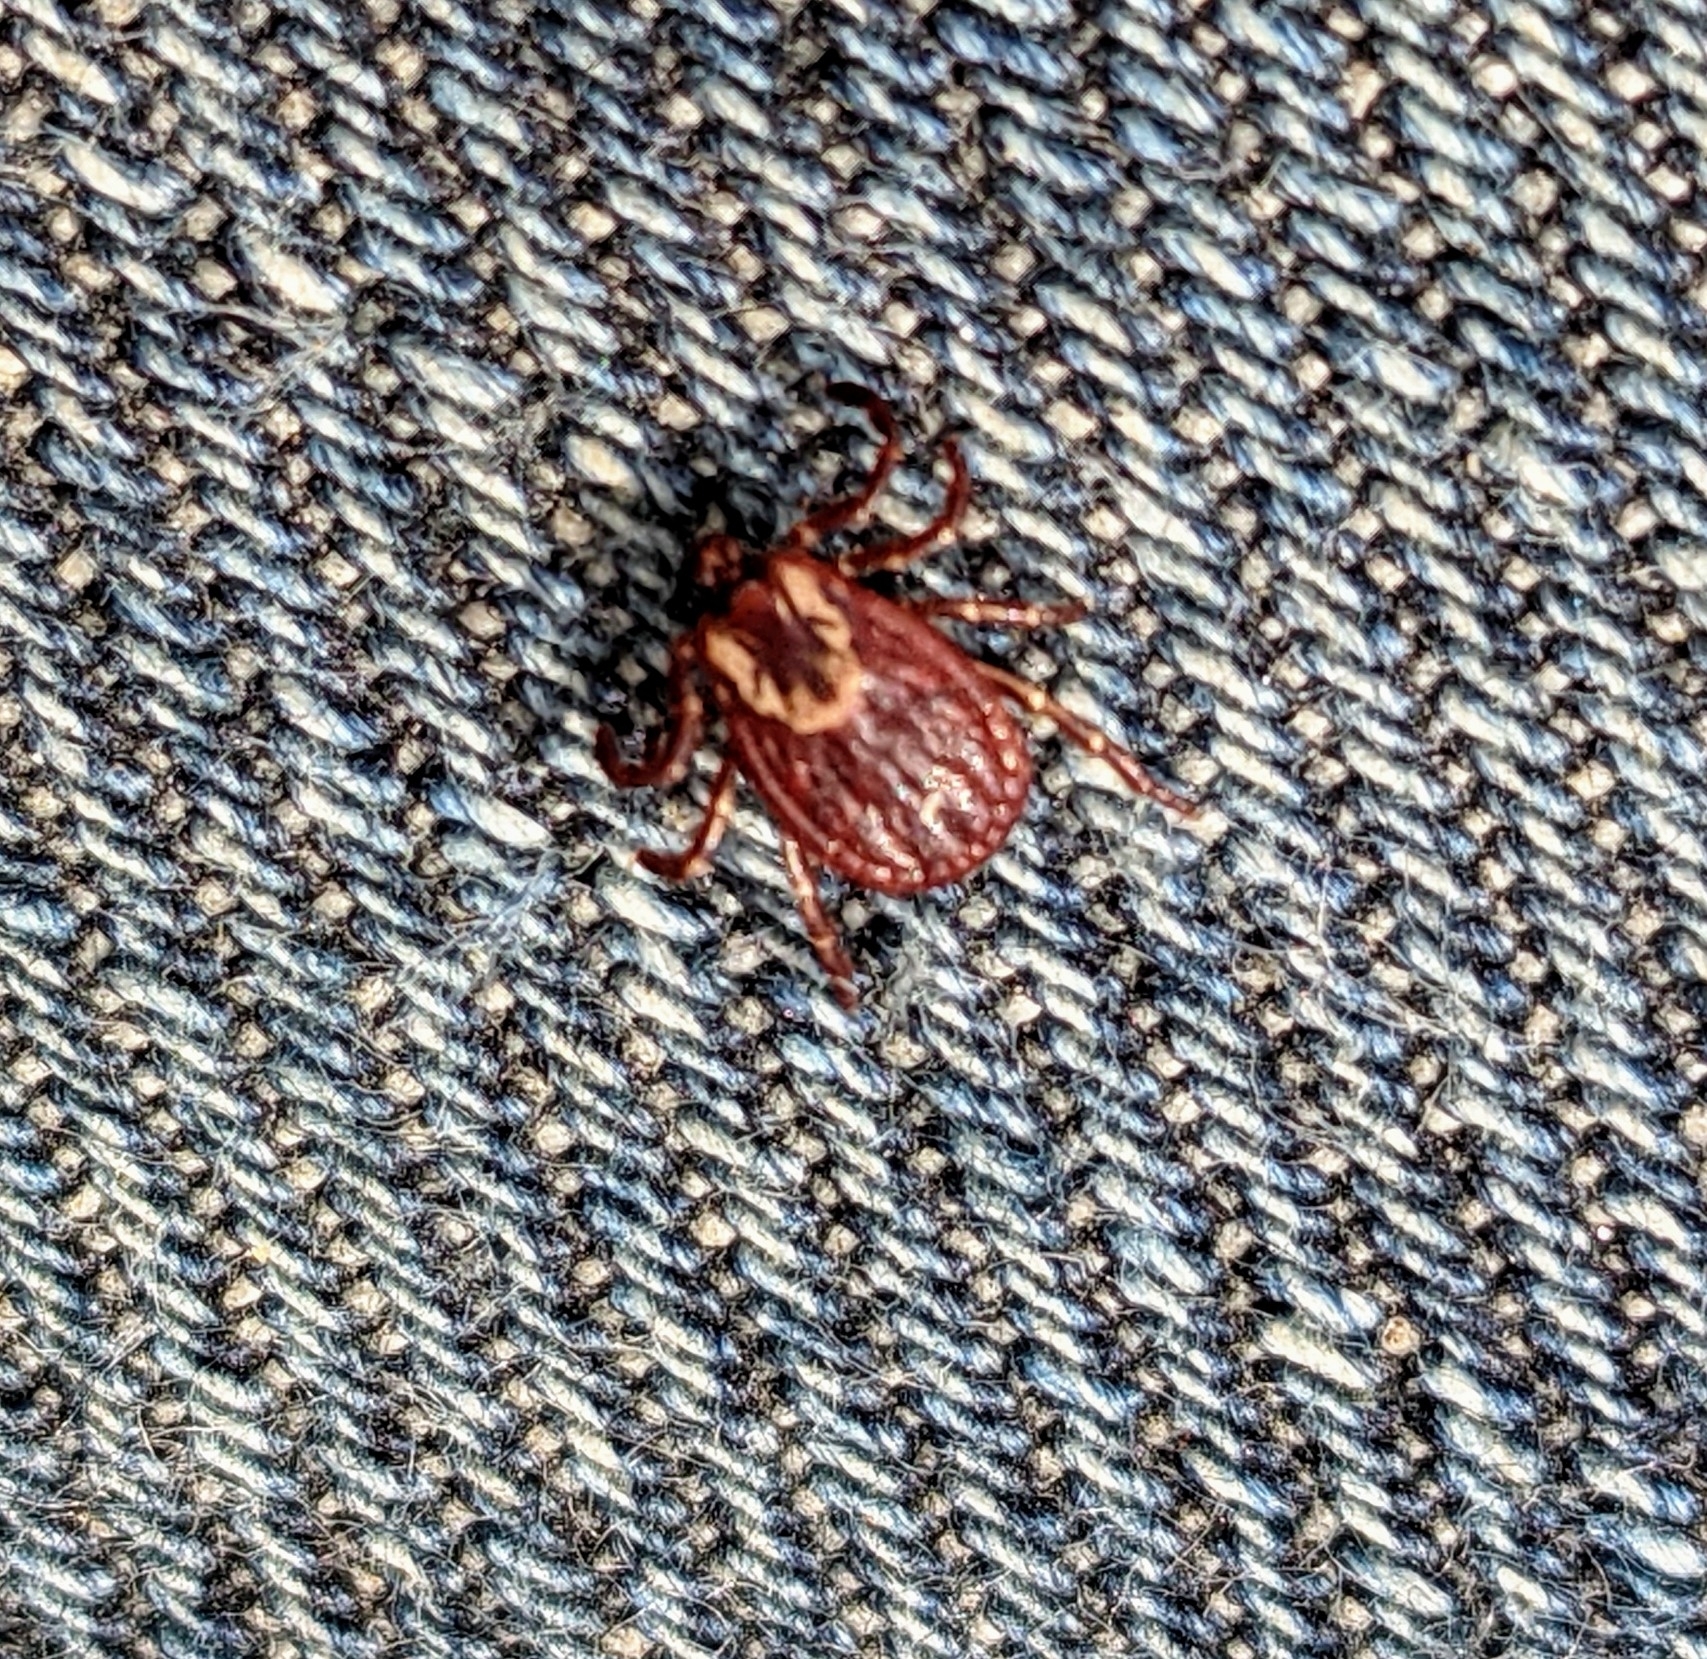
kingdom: Animalia
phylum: Arthropoda
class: Arachnida
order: Ixodida
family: Ixodidae
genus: Dermacentor
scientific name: Dermacentor variabilis
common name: American dog tick
